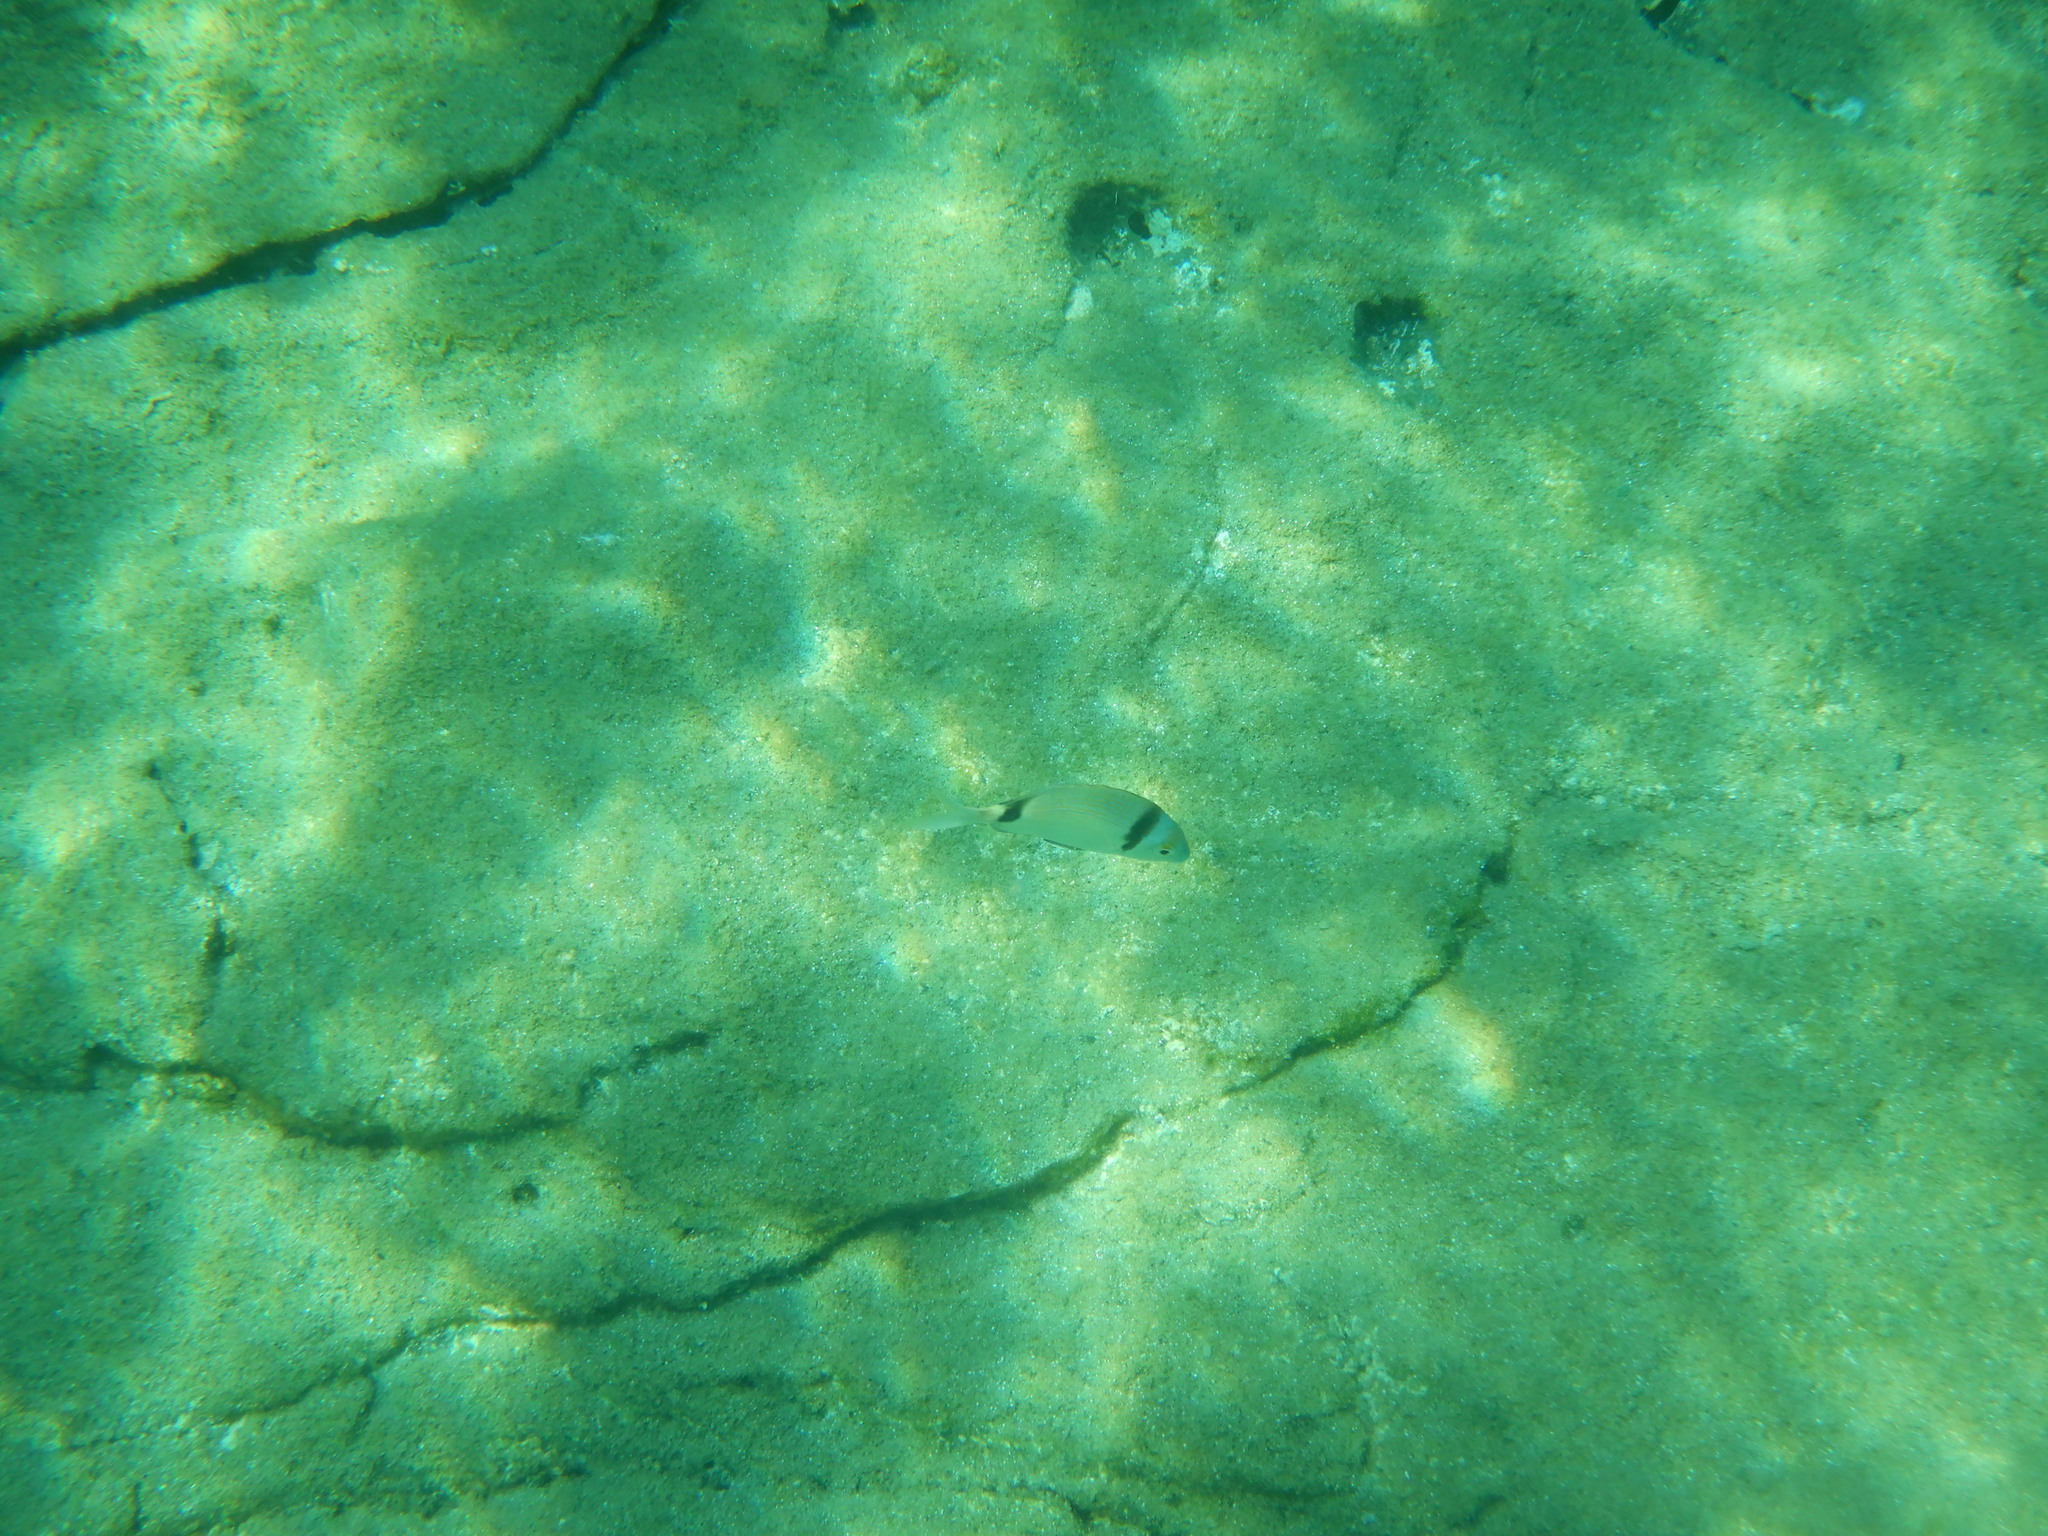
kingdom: Animalia
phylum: Chordata
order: Perciformes
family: Sparidae
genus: Diplodus
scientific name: Diplodus vulgaris
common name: Common two-banded seabream
